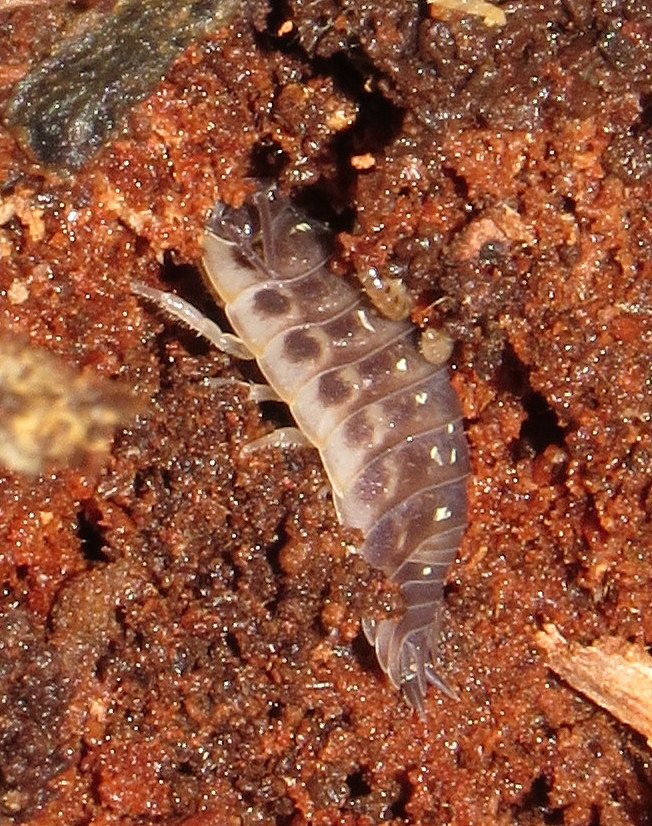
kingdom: Animalia
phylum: Arthropoda
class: Malacostraca
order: Isopoda
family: Oniscidae
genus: Oniscus
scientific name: Oniscus asellus
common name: Common shiny woodlouse
